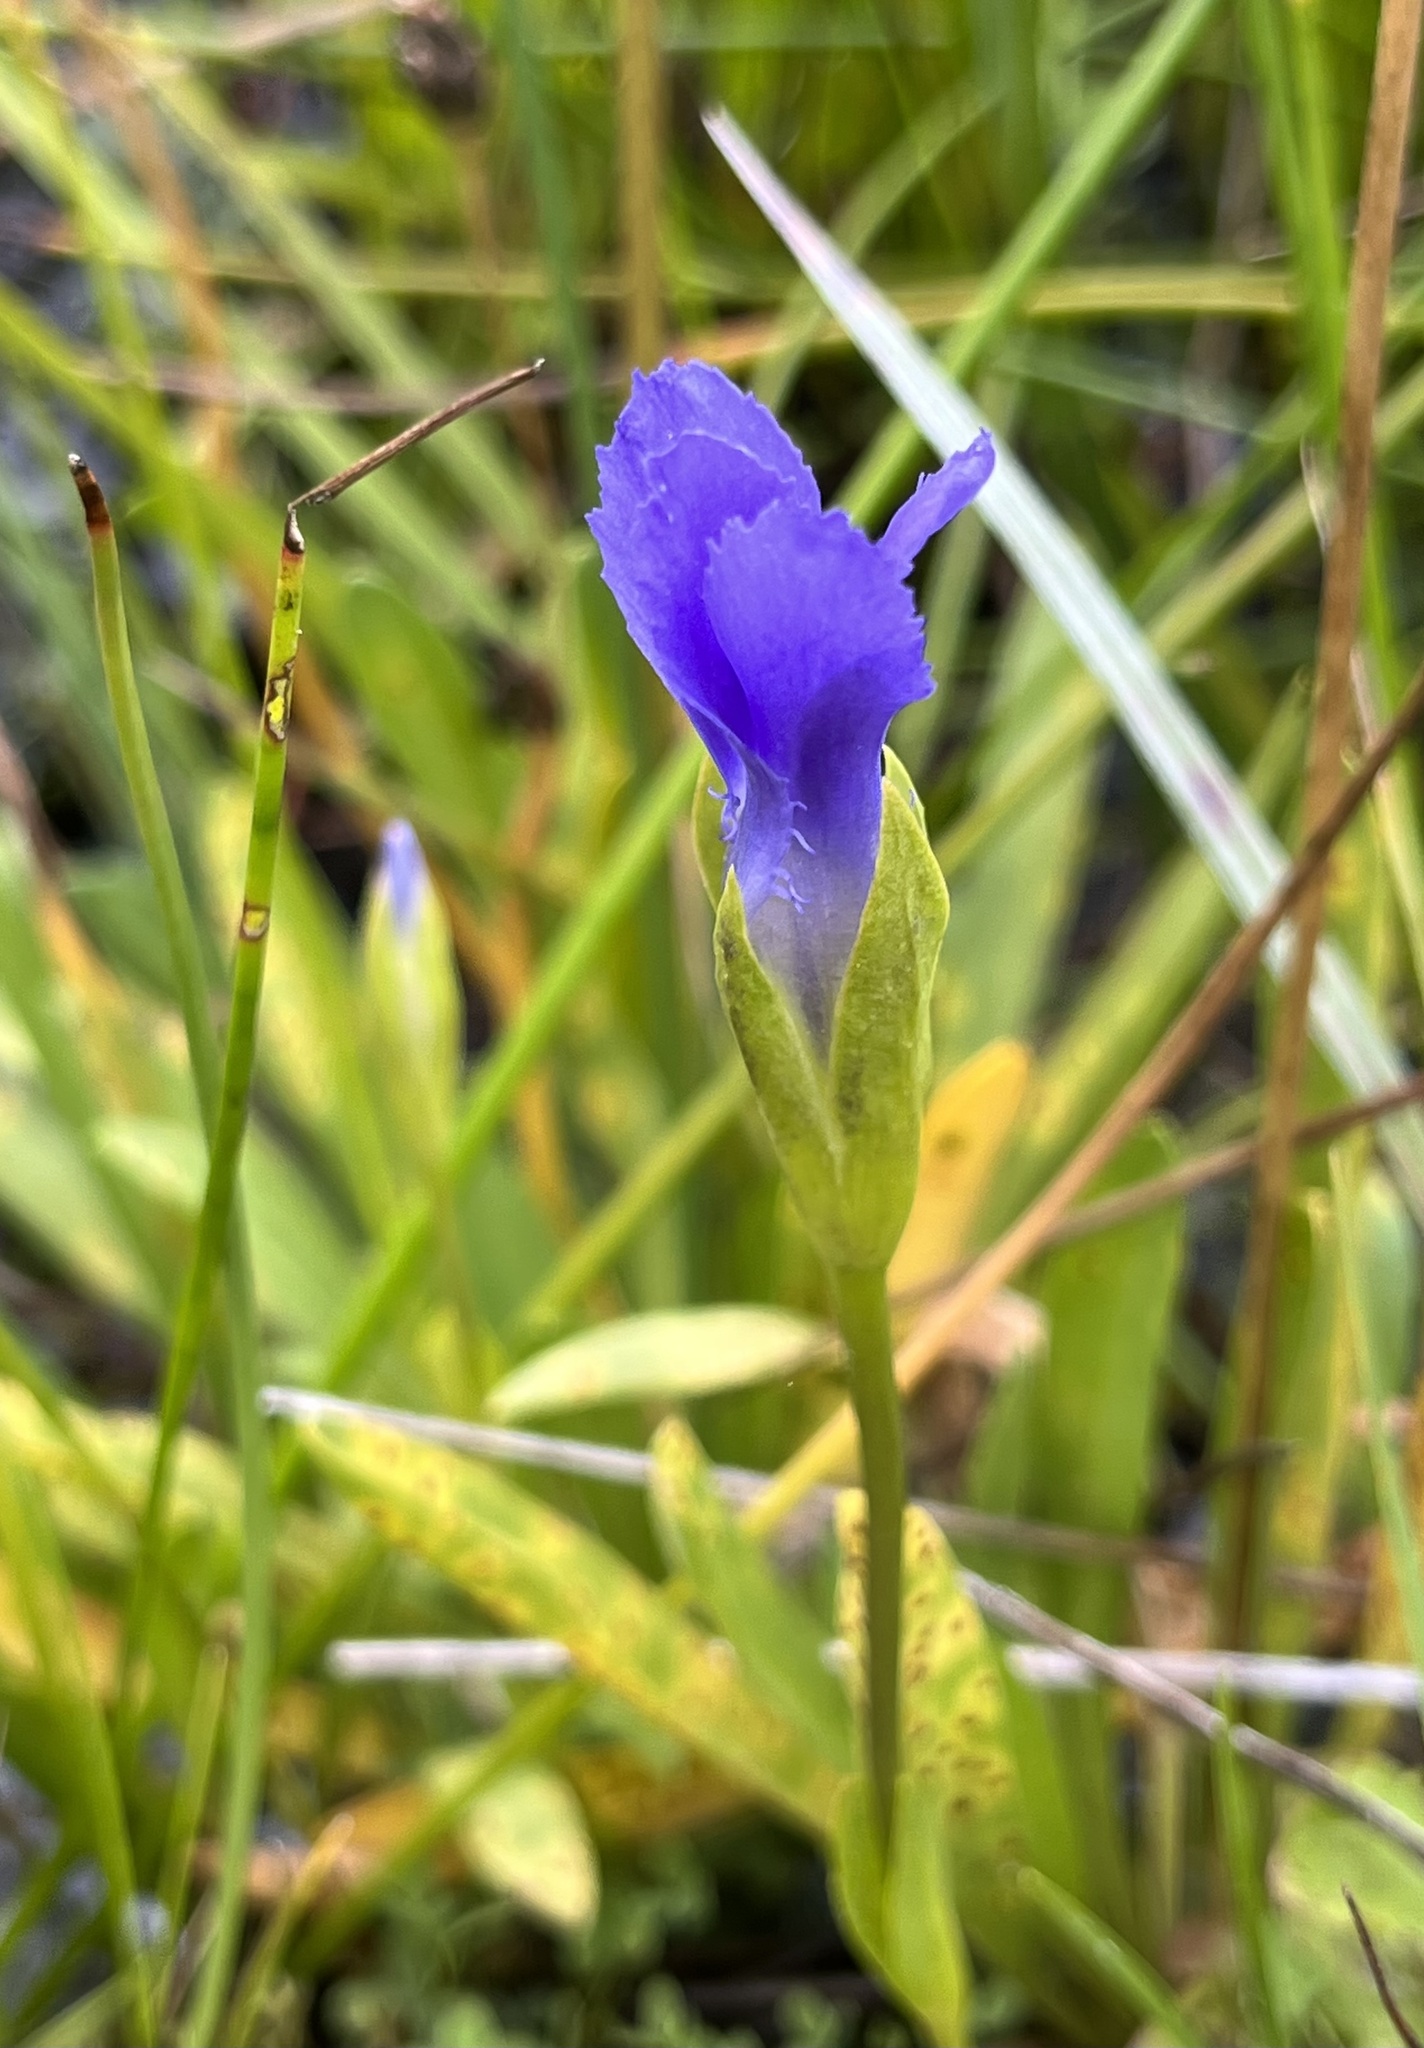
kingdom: Plantae
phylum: Tracheophyta
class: Magnoliopsida
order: Gentianales
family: Gentianaceae
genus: Gentianopsis
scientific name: Gentianopsis simplex
